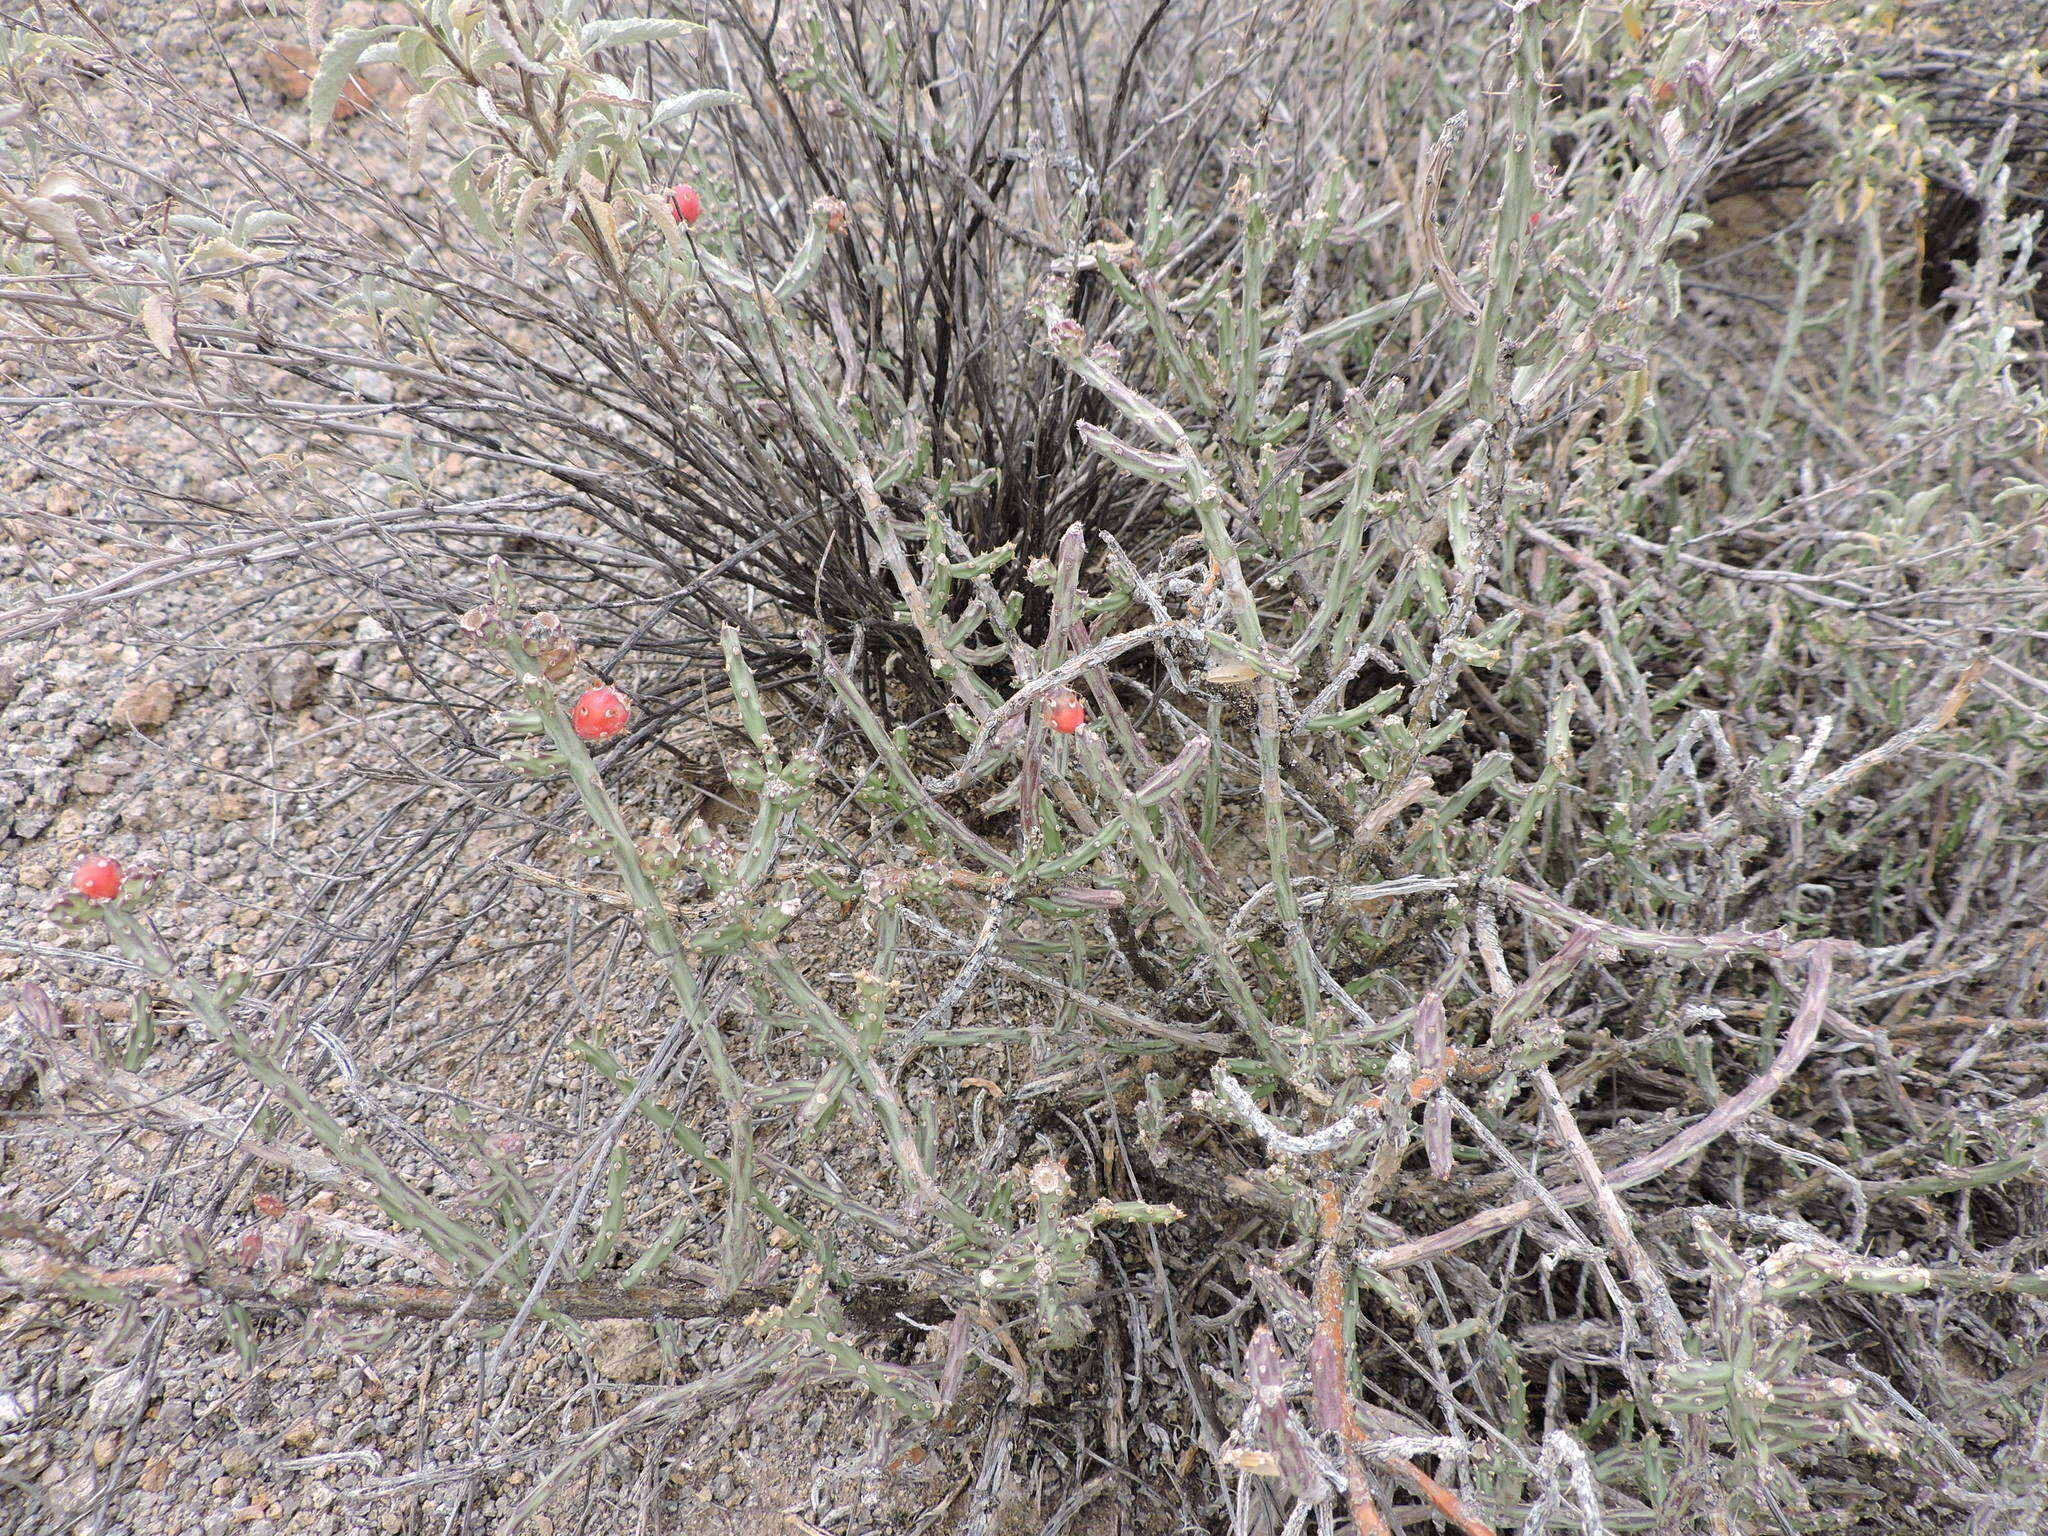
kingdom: Plantae
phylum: Tracheophyta
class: Magnoliopsida
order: Caryophyllales
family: Cactaceae
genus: Cylindropuntia
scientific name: Cylindropuntia leptocaulis
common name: Christmas cactus
